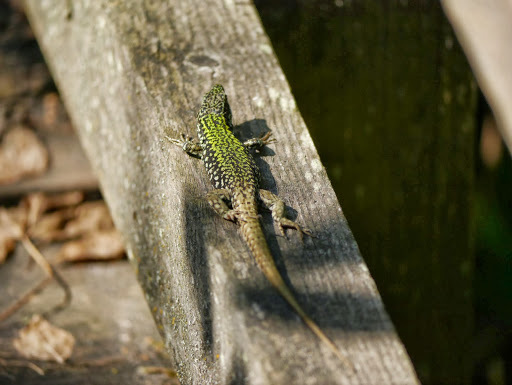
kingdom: Animalia
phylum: Chordata
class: Squamata
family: Lacertidae
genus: Podarcis
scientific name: Podarcis muralis
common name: Common wall lizard
